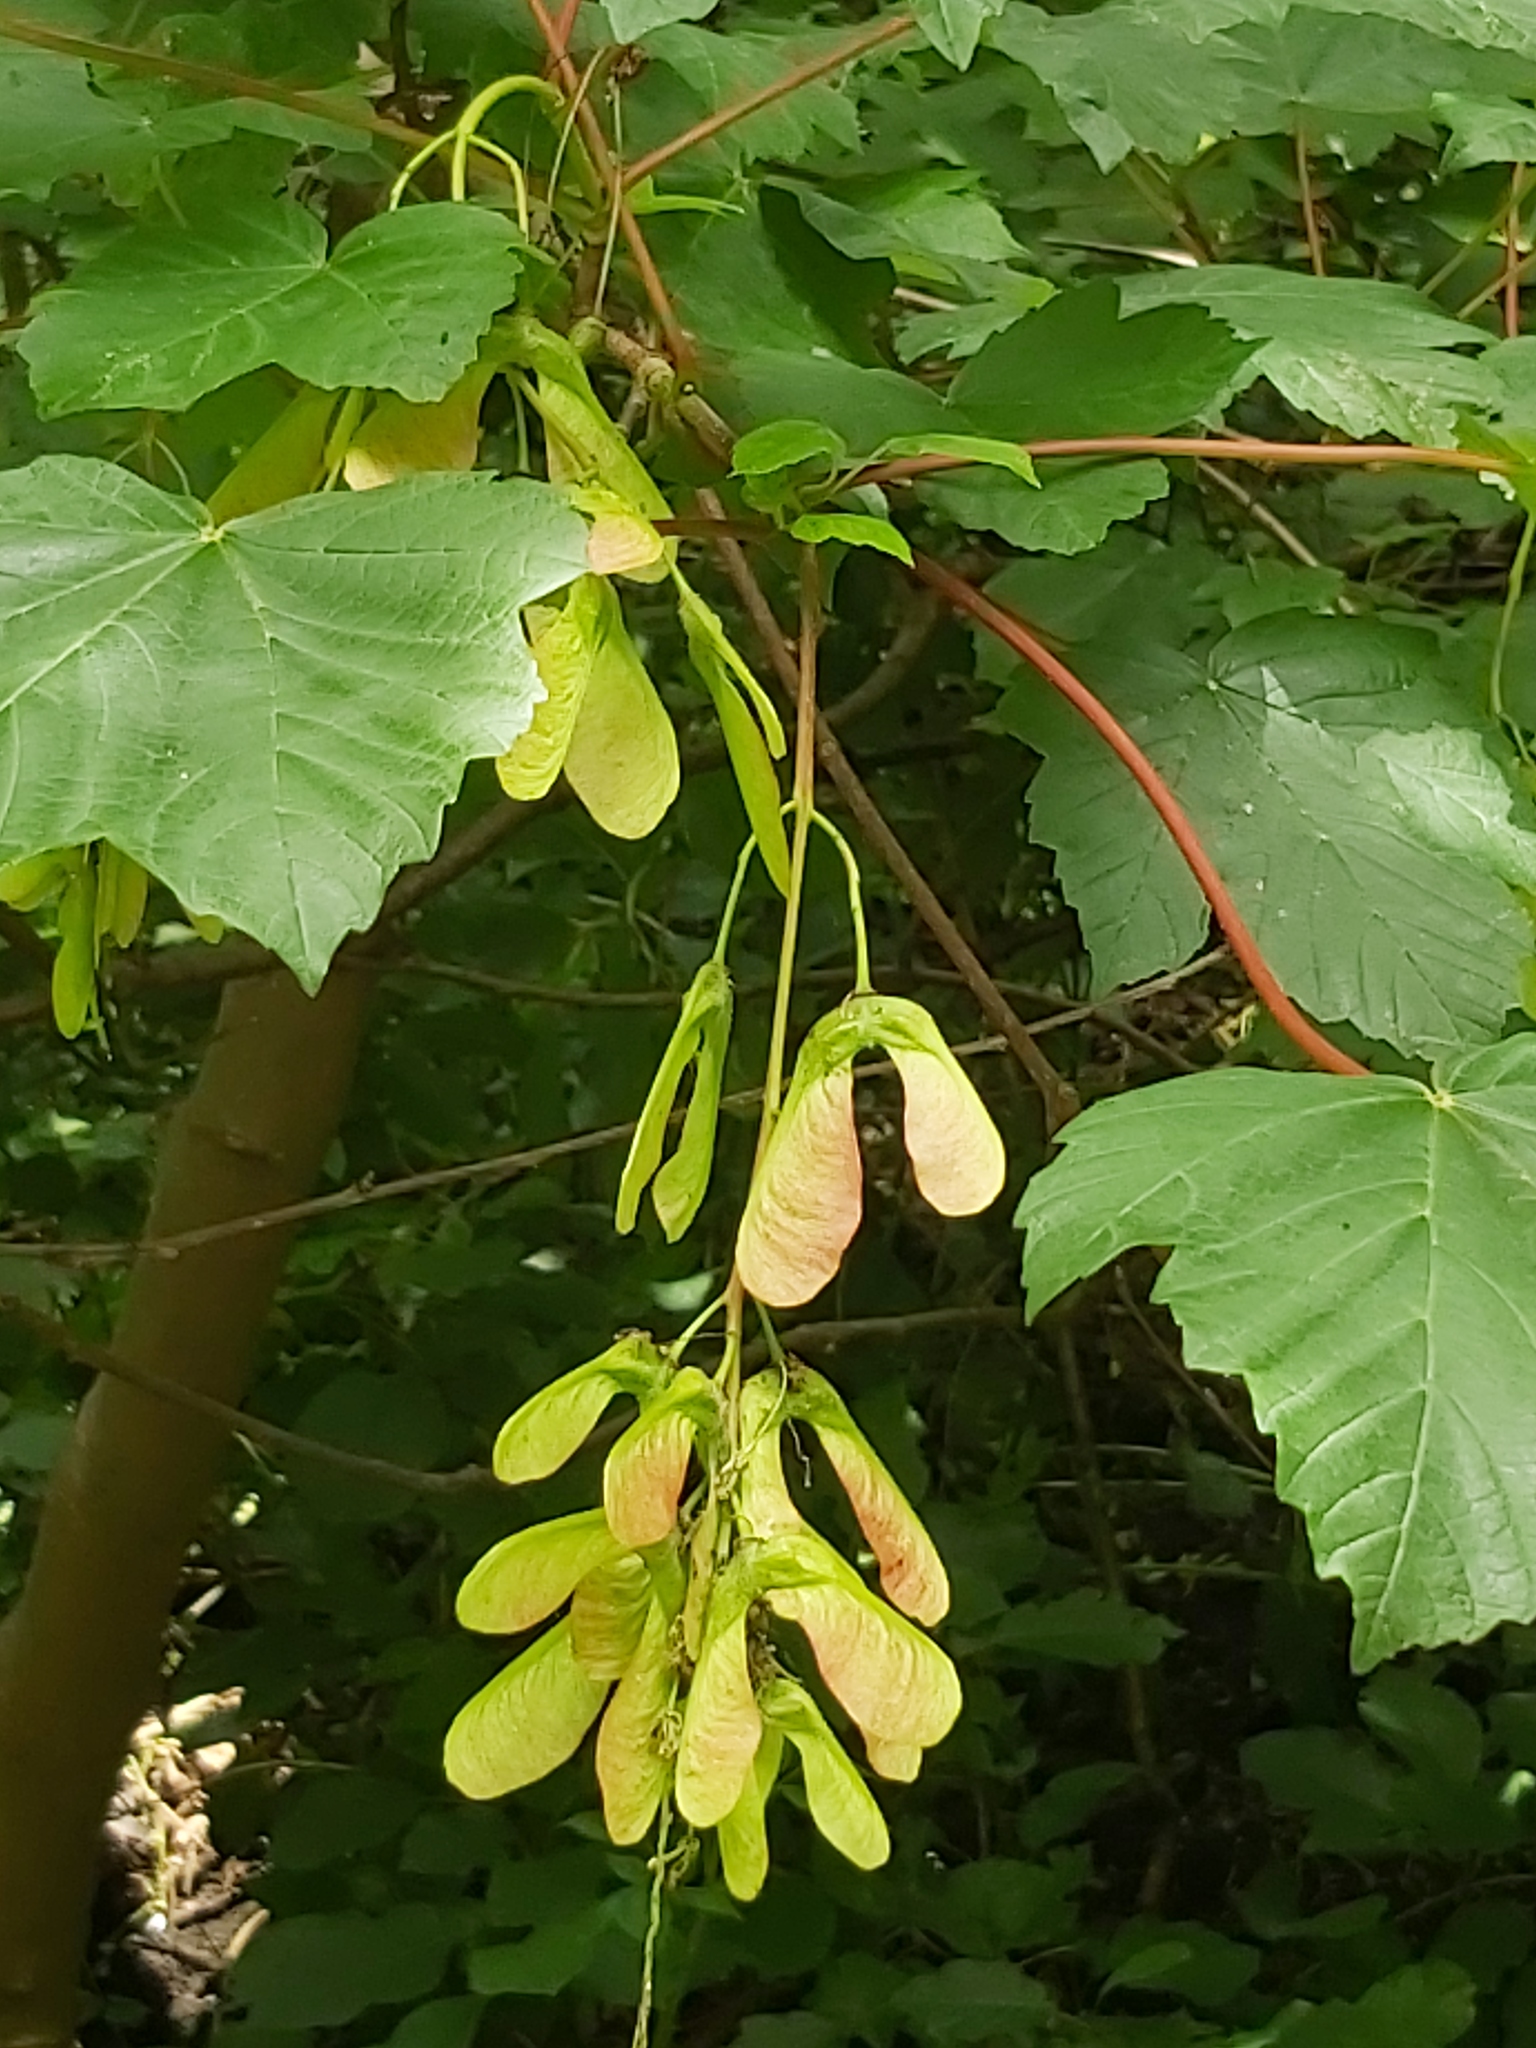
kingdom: Plantae
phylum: Tracheophyta
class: Magnoliopsida
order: Sapindales
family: Sapindaceae
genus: Acer
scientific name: Acer pseudoplatanus
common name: Sycamore
